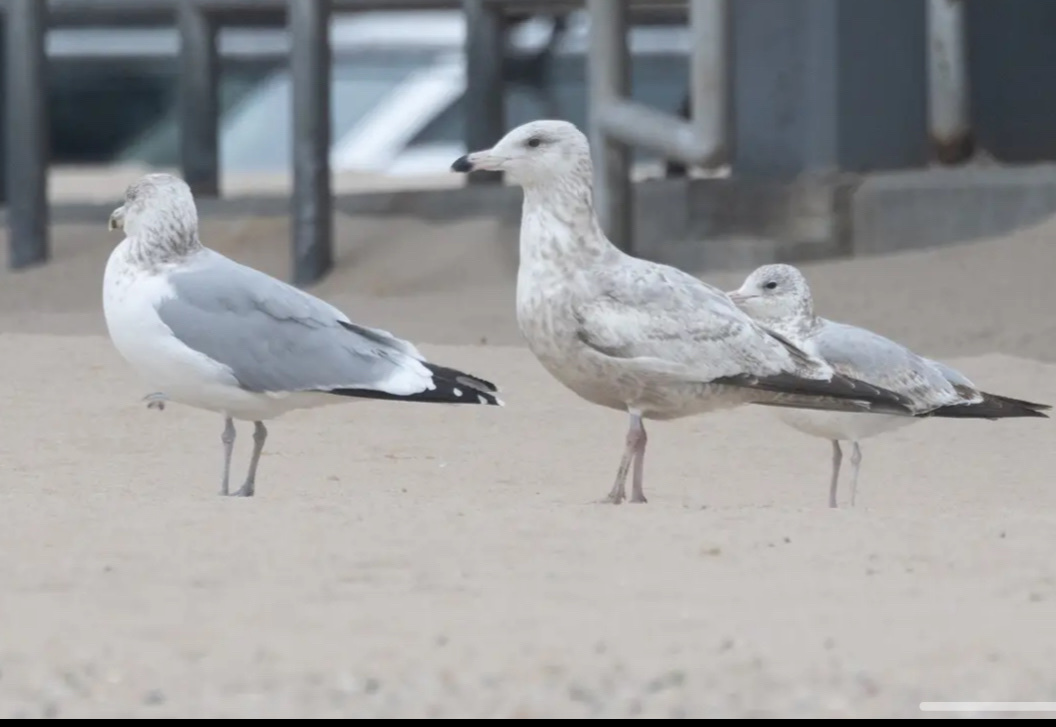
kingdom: Animalia
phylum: Chordata
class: Aves
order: Charadriiformes
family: Laridae
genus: Larus
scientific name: Larus argentatus
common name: Herring gull
